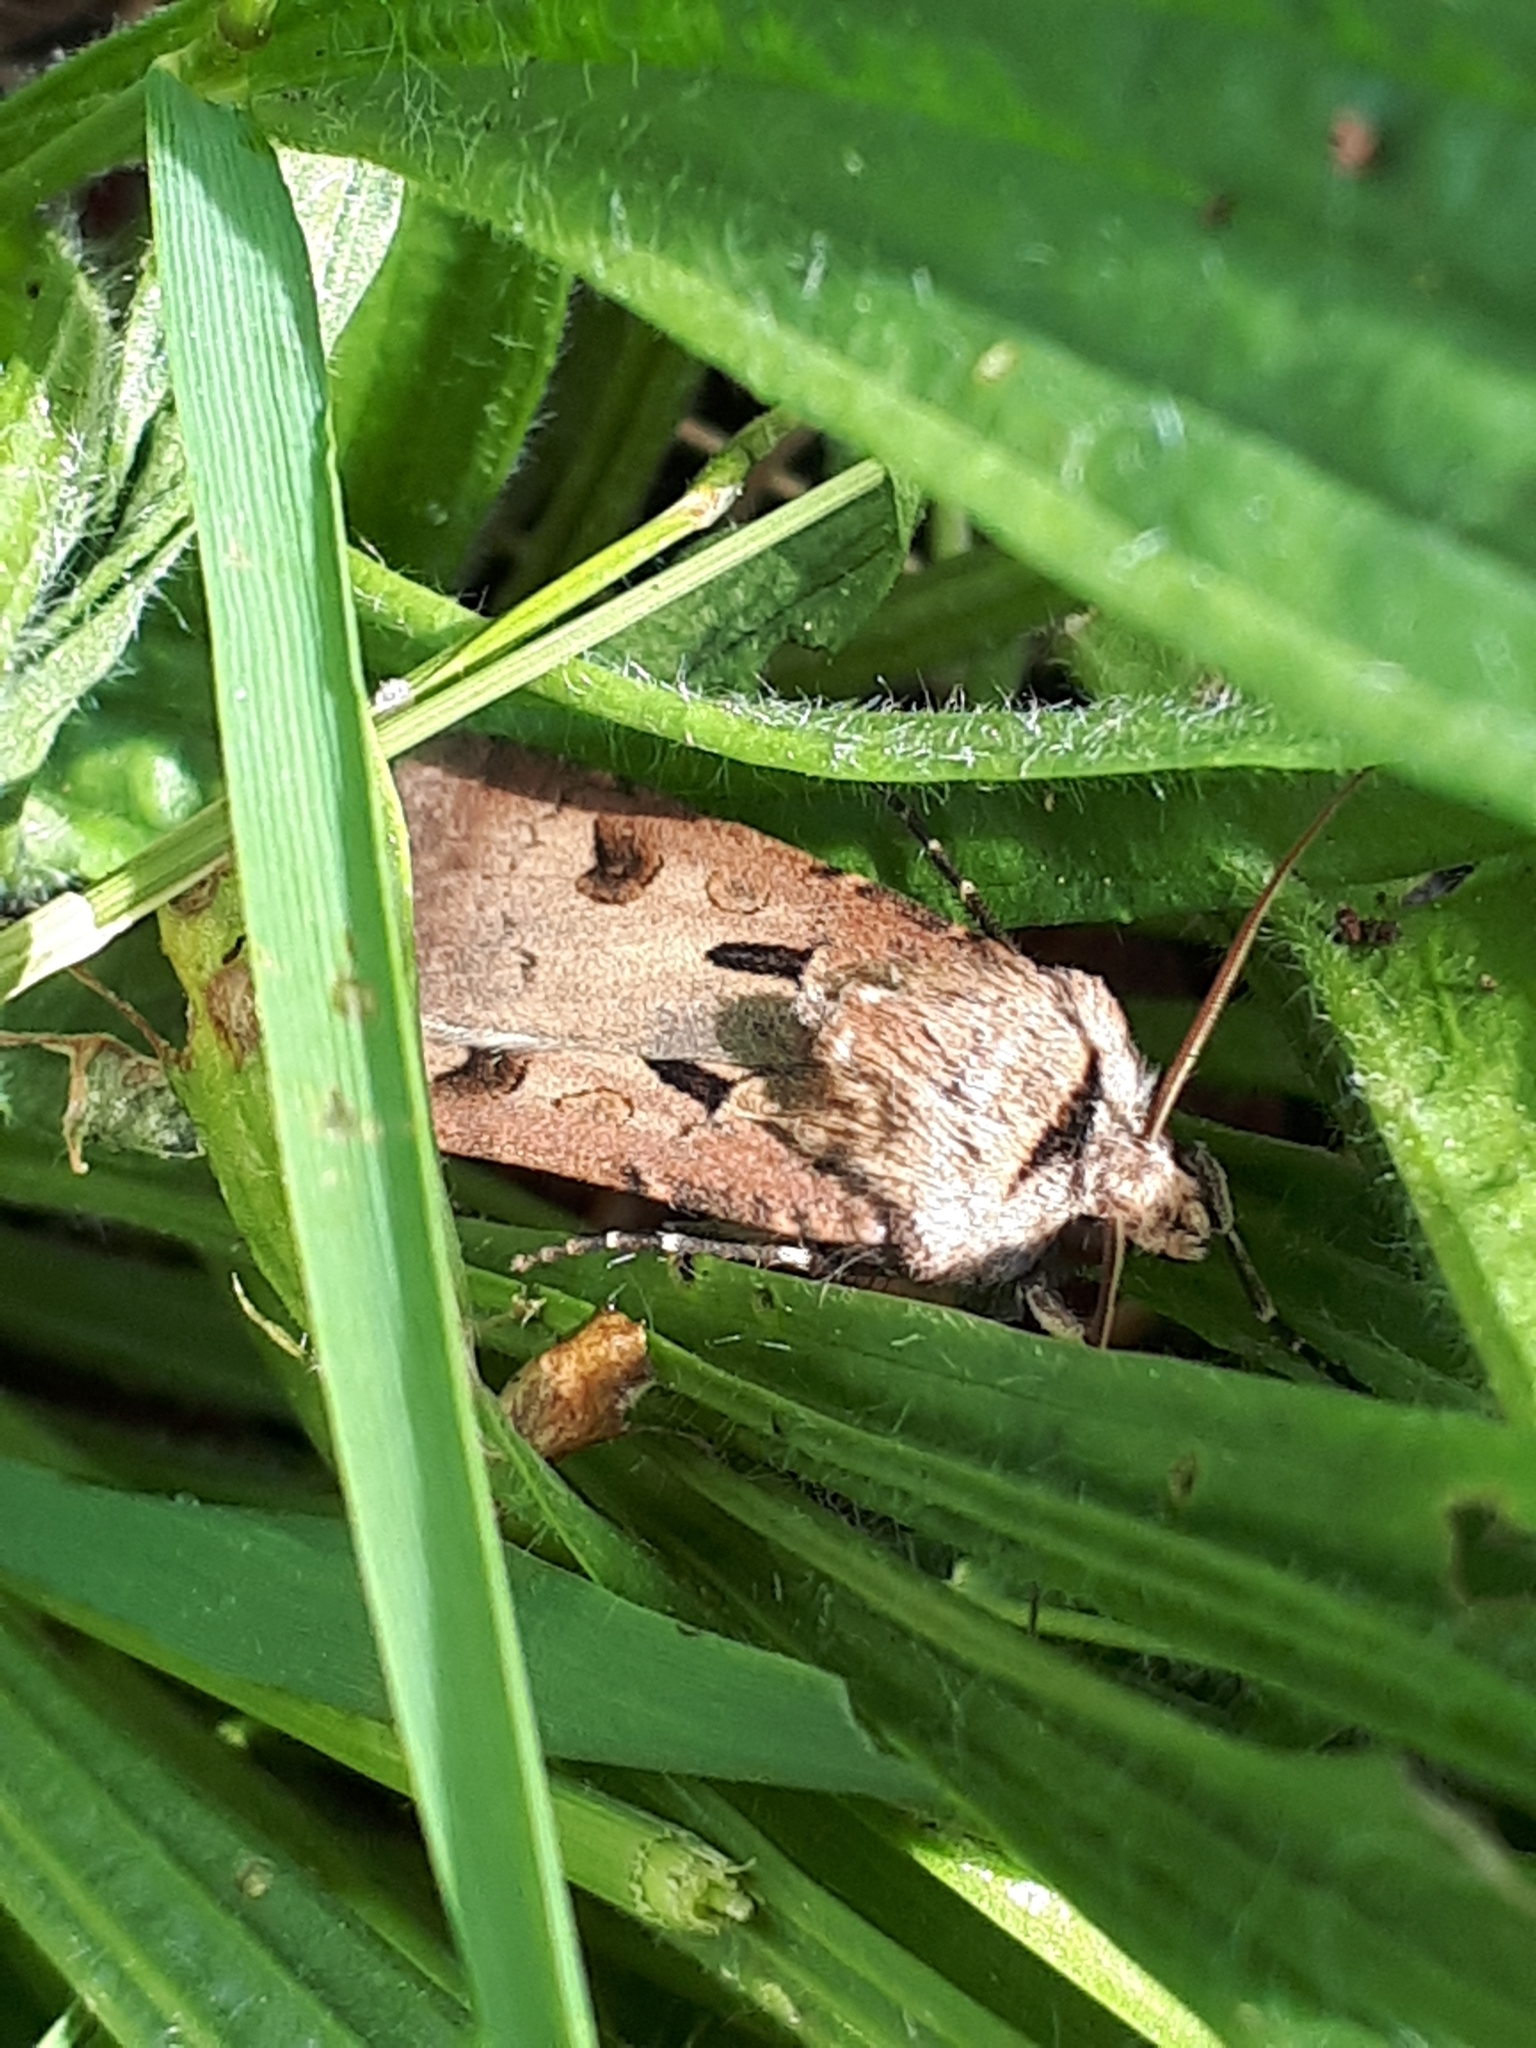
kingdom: Animalia
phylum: Arthropoda
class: Insecta
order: Lepidoptera
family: Noctuidae
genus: Agrotis
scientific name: Agrotis exclamationis
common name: Heart and dart
